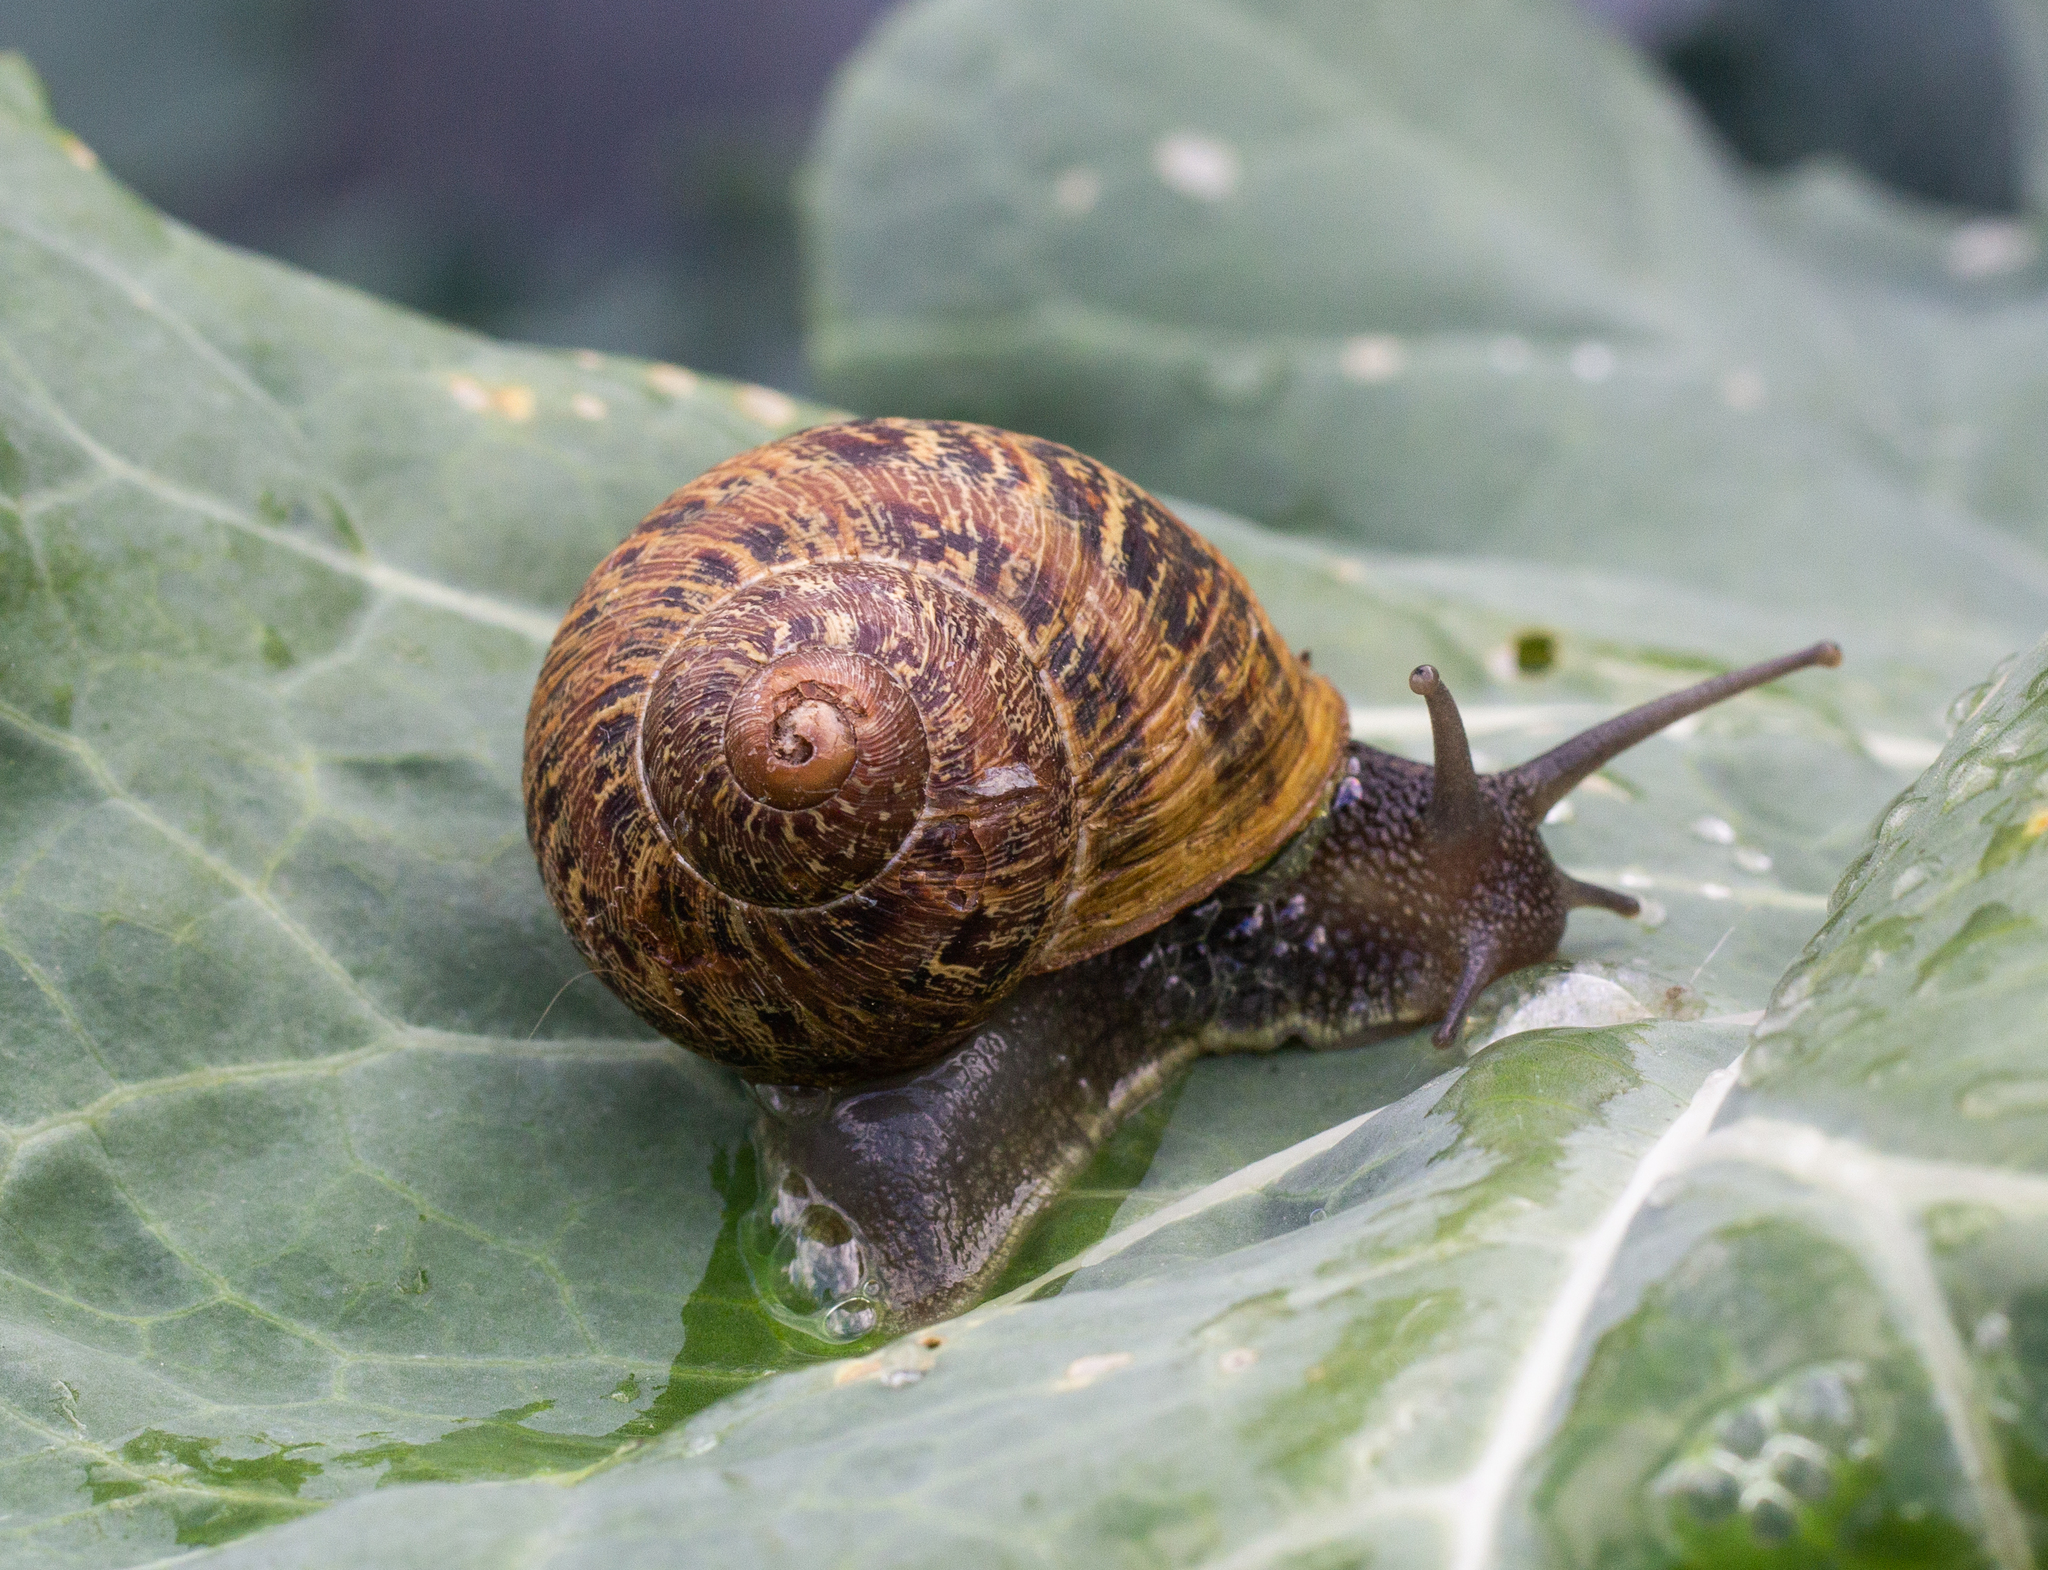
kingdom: Animalia
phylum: Mollusca
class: Gastropoda
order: Stylommatophora
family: Helicidae
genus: Cornu
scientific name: Cornu aspersum
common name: Brown garden snail
